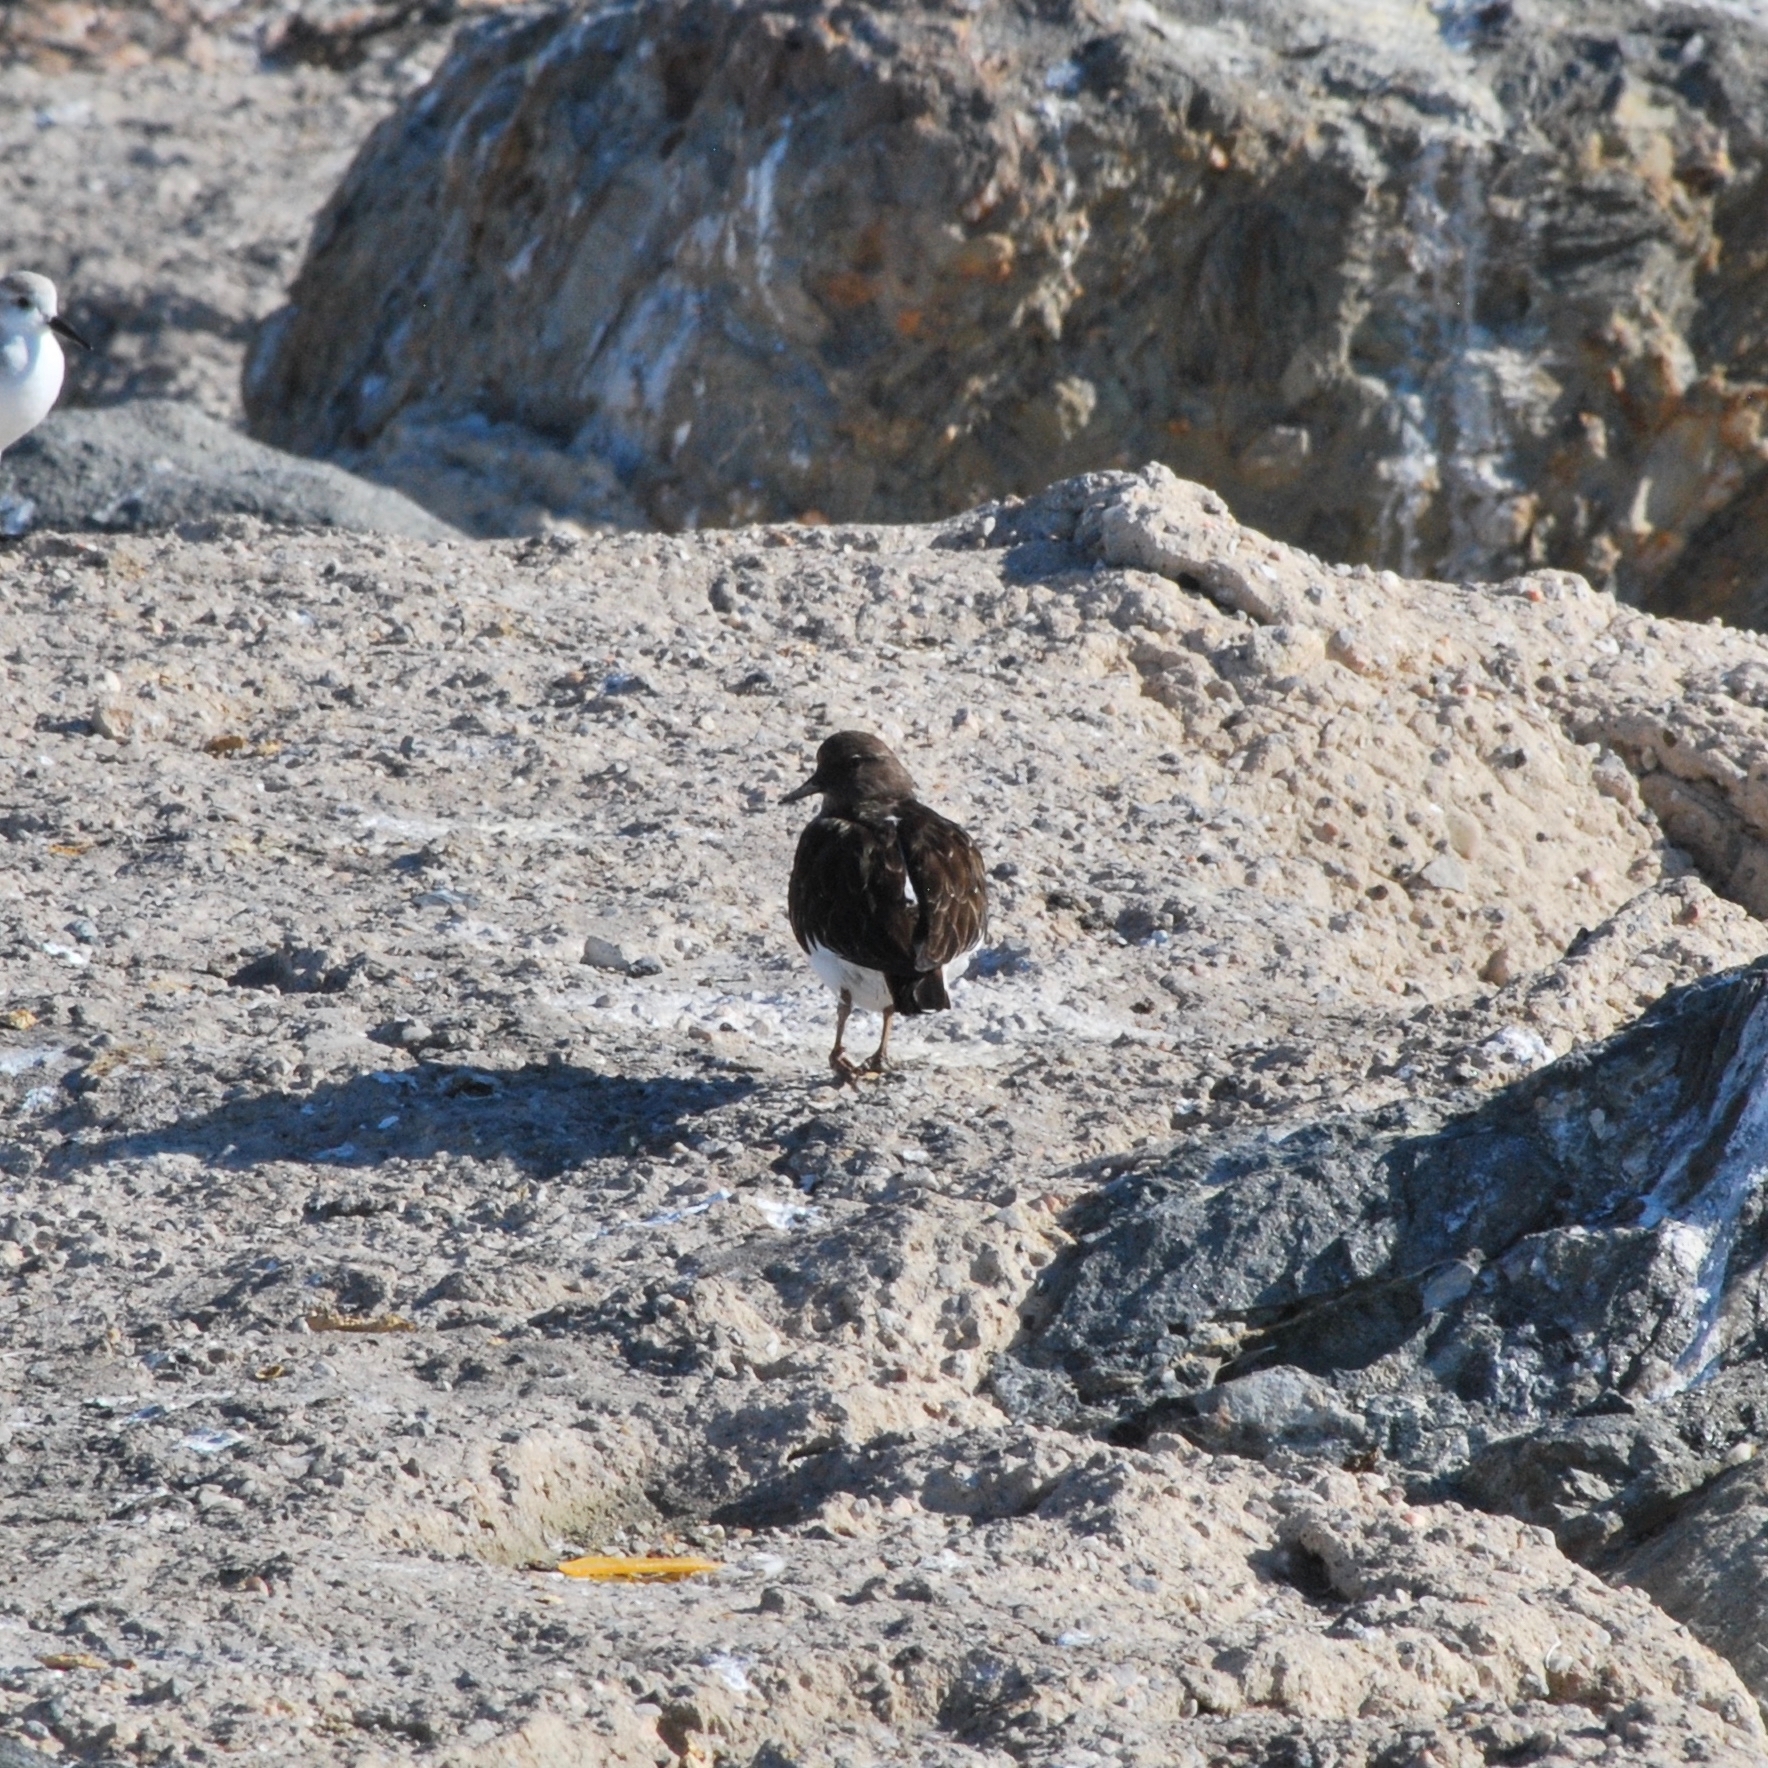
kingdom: Animalia
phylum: Chordata
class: Aves
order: Charadriiformes
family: Scolopacidae
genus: Arenaria
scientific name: Arenaria melanocephala
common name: Black turnstone
